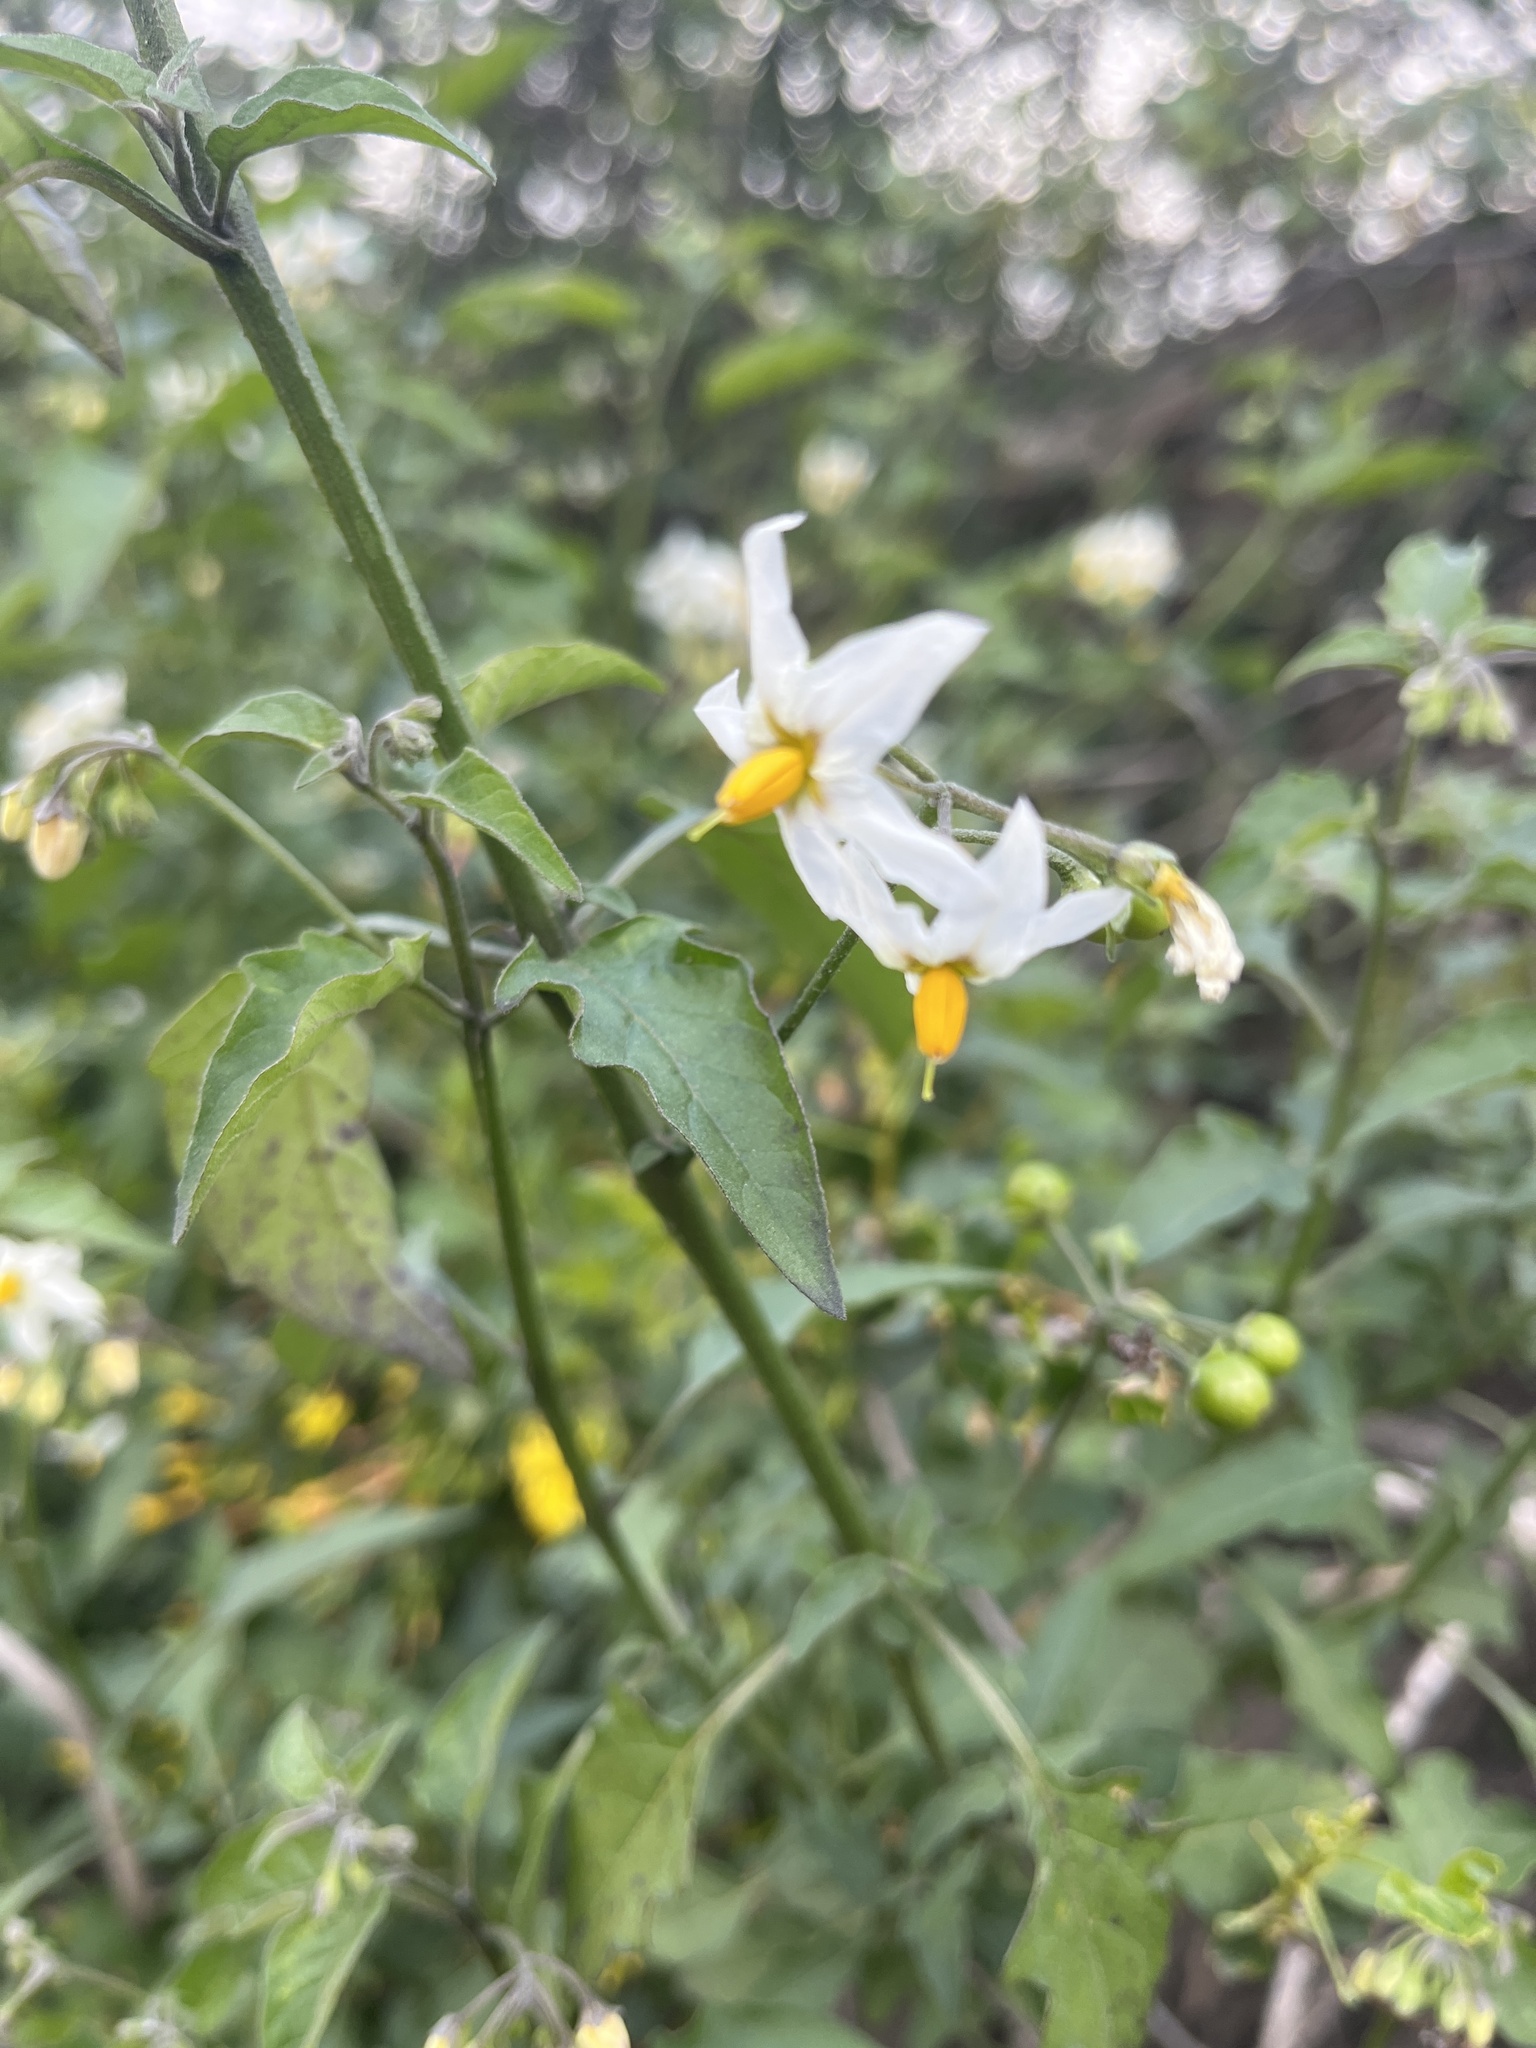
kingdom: Plantae
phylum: Tracheophyta
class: Magnoliopsida
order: Solanales
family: Solanaceae
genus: Solanum
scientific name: Solanum douglasii
